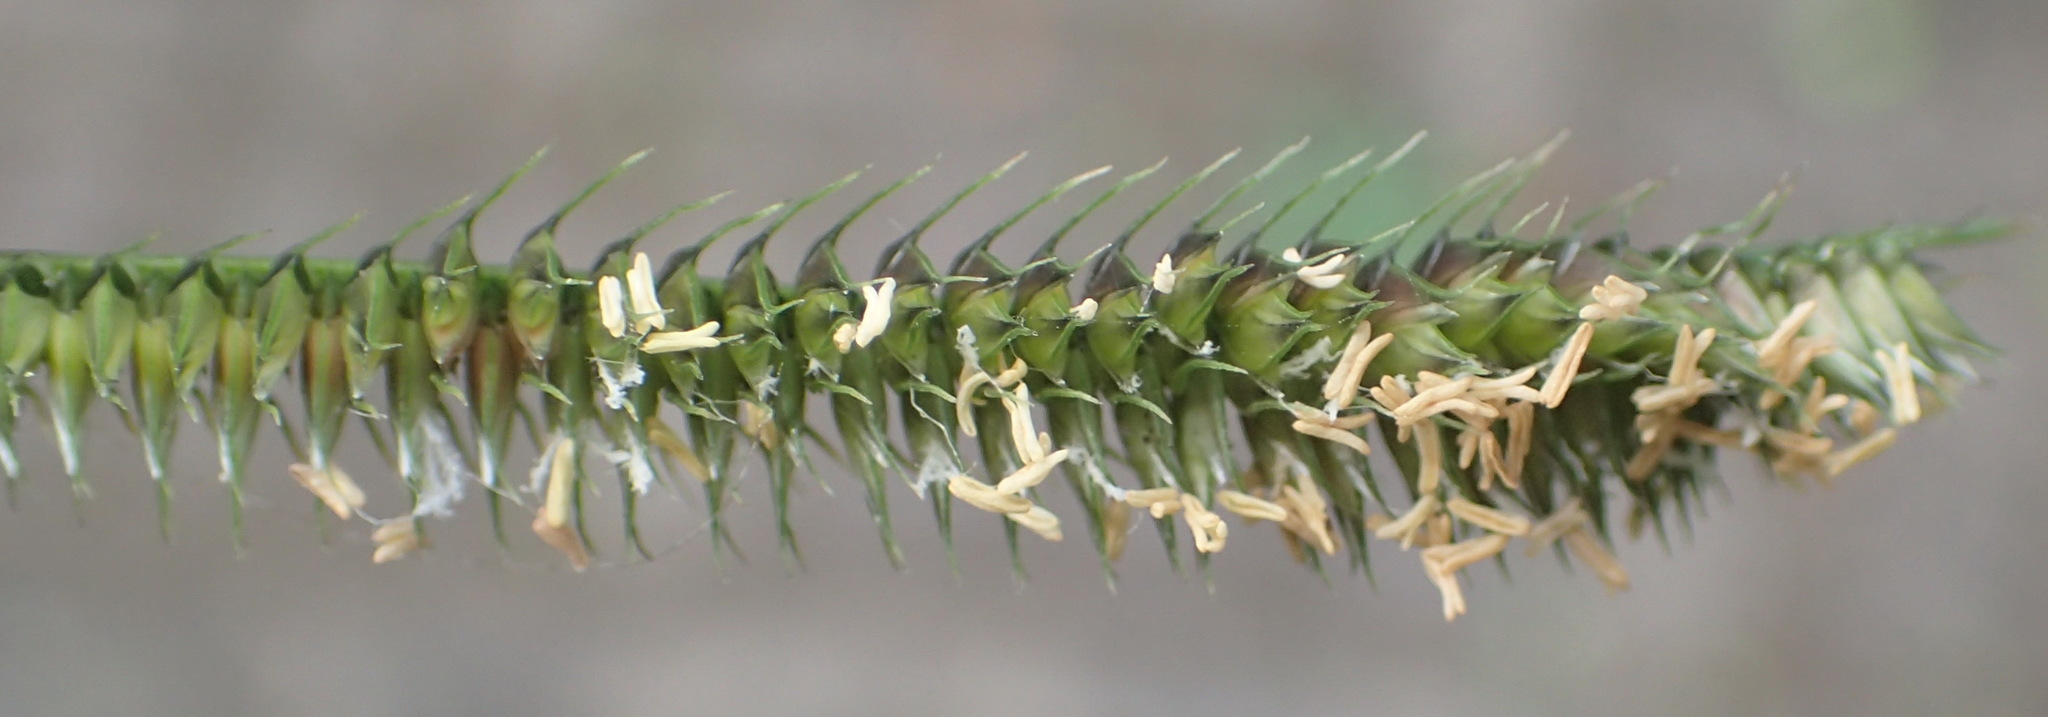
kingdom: Plantae
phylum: Tracheophyta
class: Liliopsida
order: Poales
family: Poaceae
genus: Dactyloctenium
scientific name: Dactyloctenium australe
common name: Durban grass
